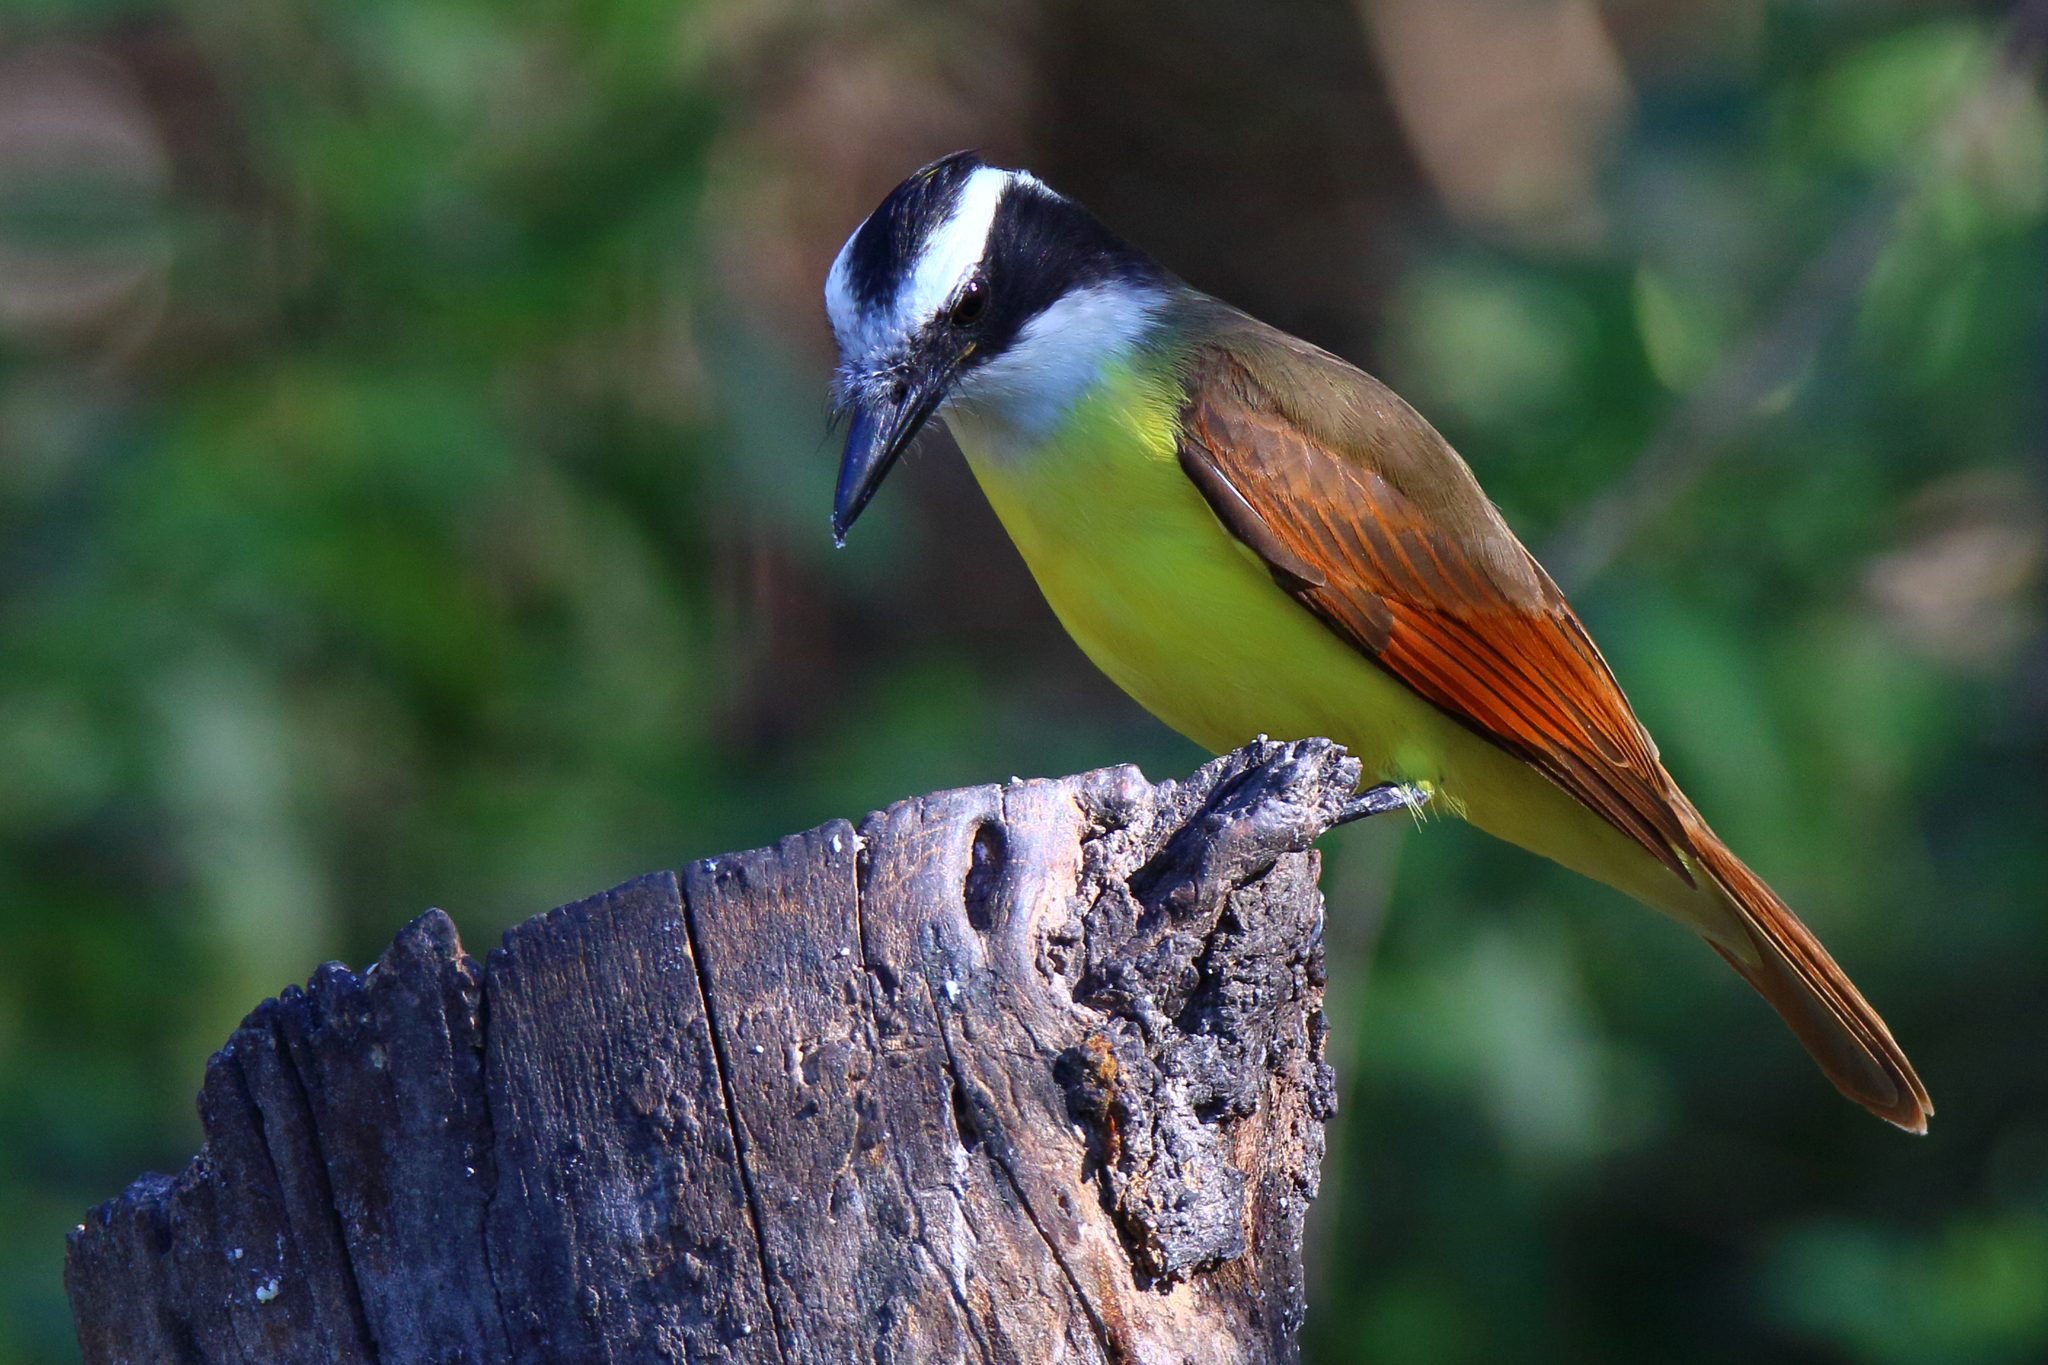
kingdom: Animalia
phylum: Chordata
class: Aves
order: Passeriformes
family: Tyrannidae
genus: Pitangus
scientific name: Pitangus sulphuratus
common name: Great kiskadee
